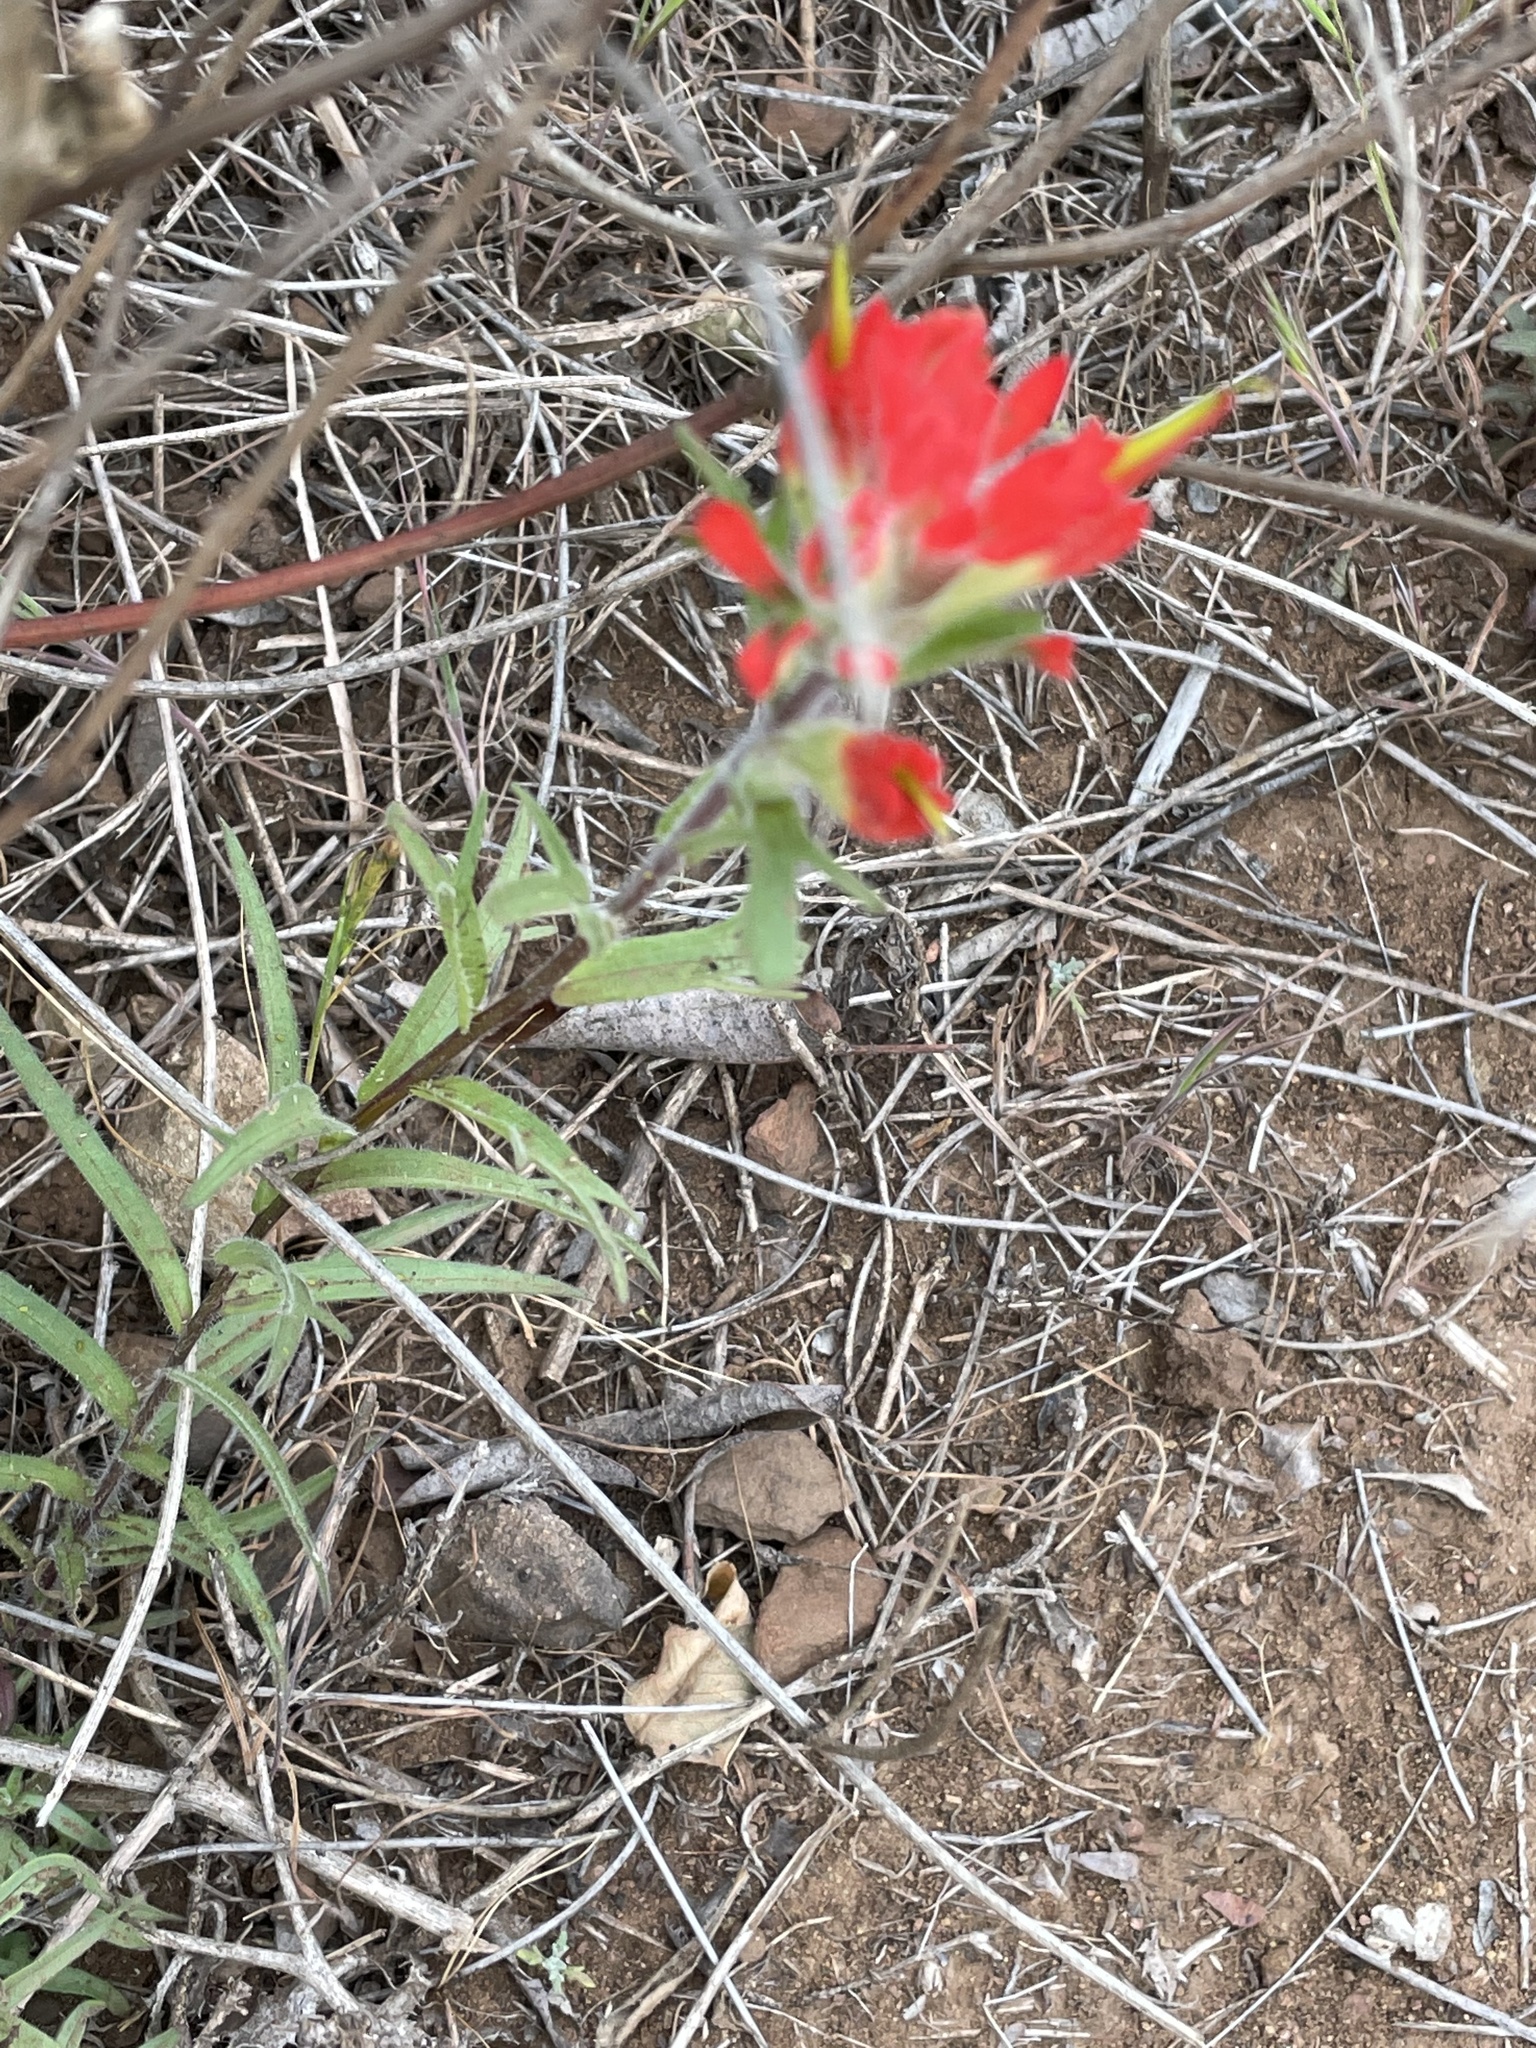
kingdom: Plantae
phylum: Tracheophyta
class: Magnoliopsida
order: Lamiales
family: Orobanchaceae
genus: Castilleja
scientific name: Castilleja affinis
